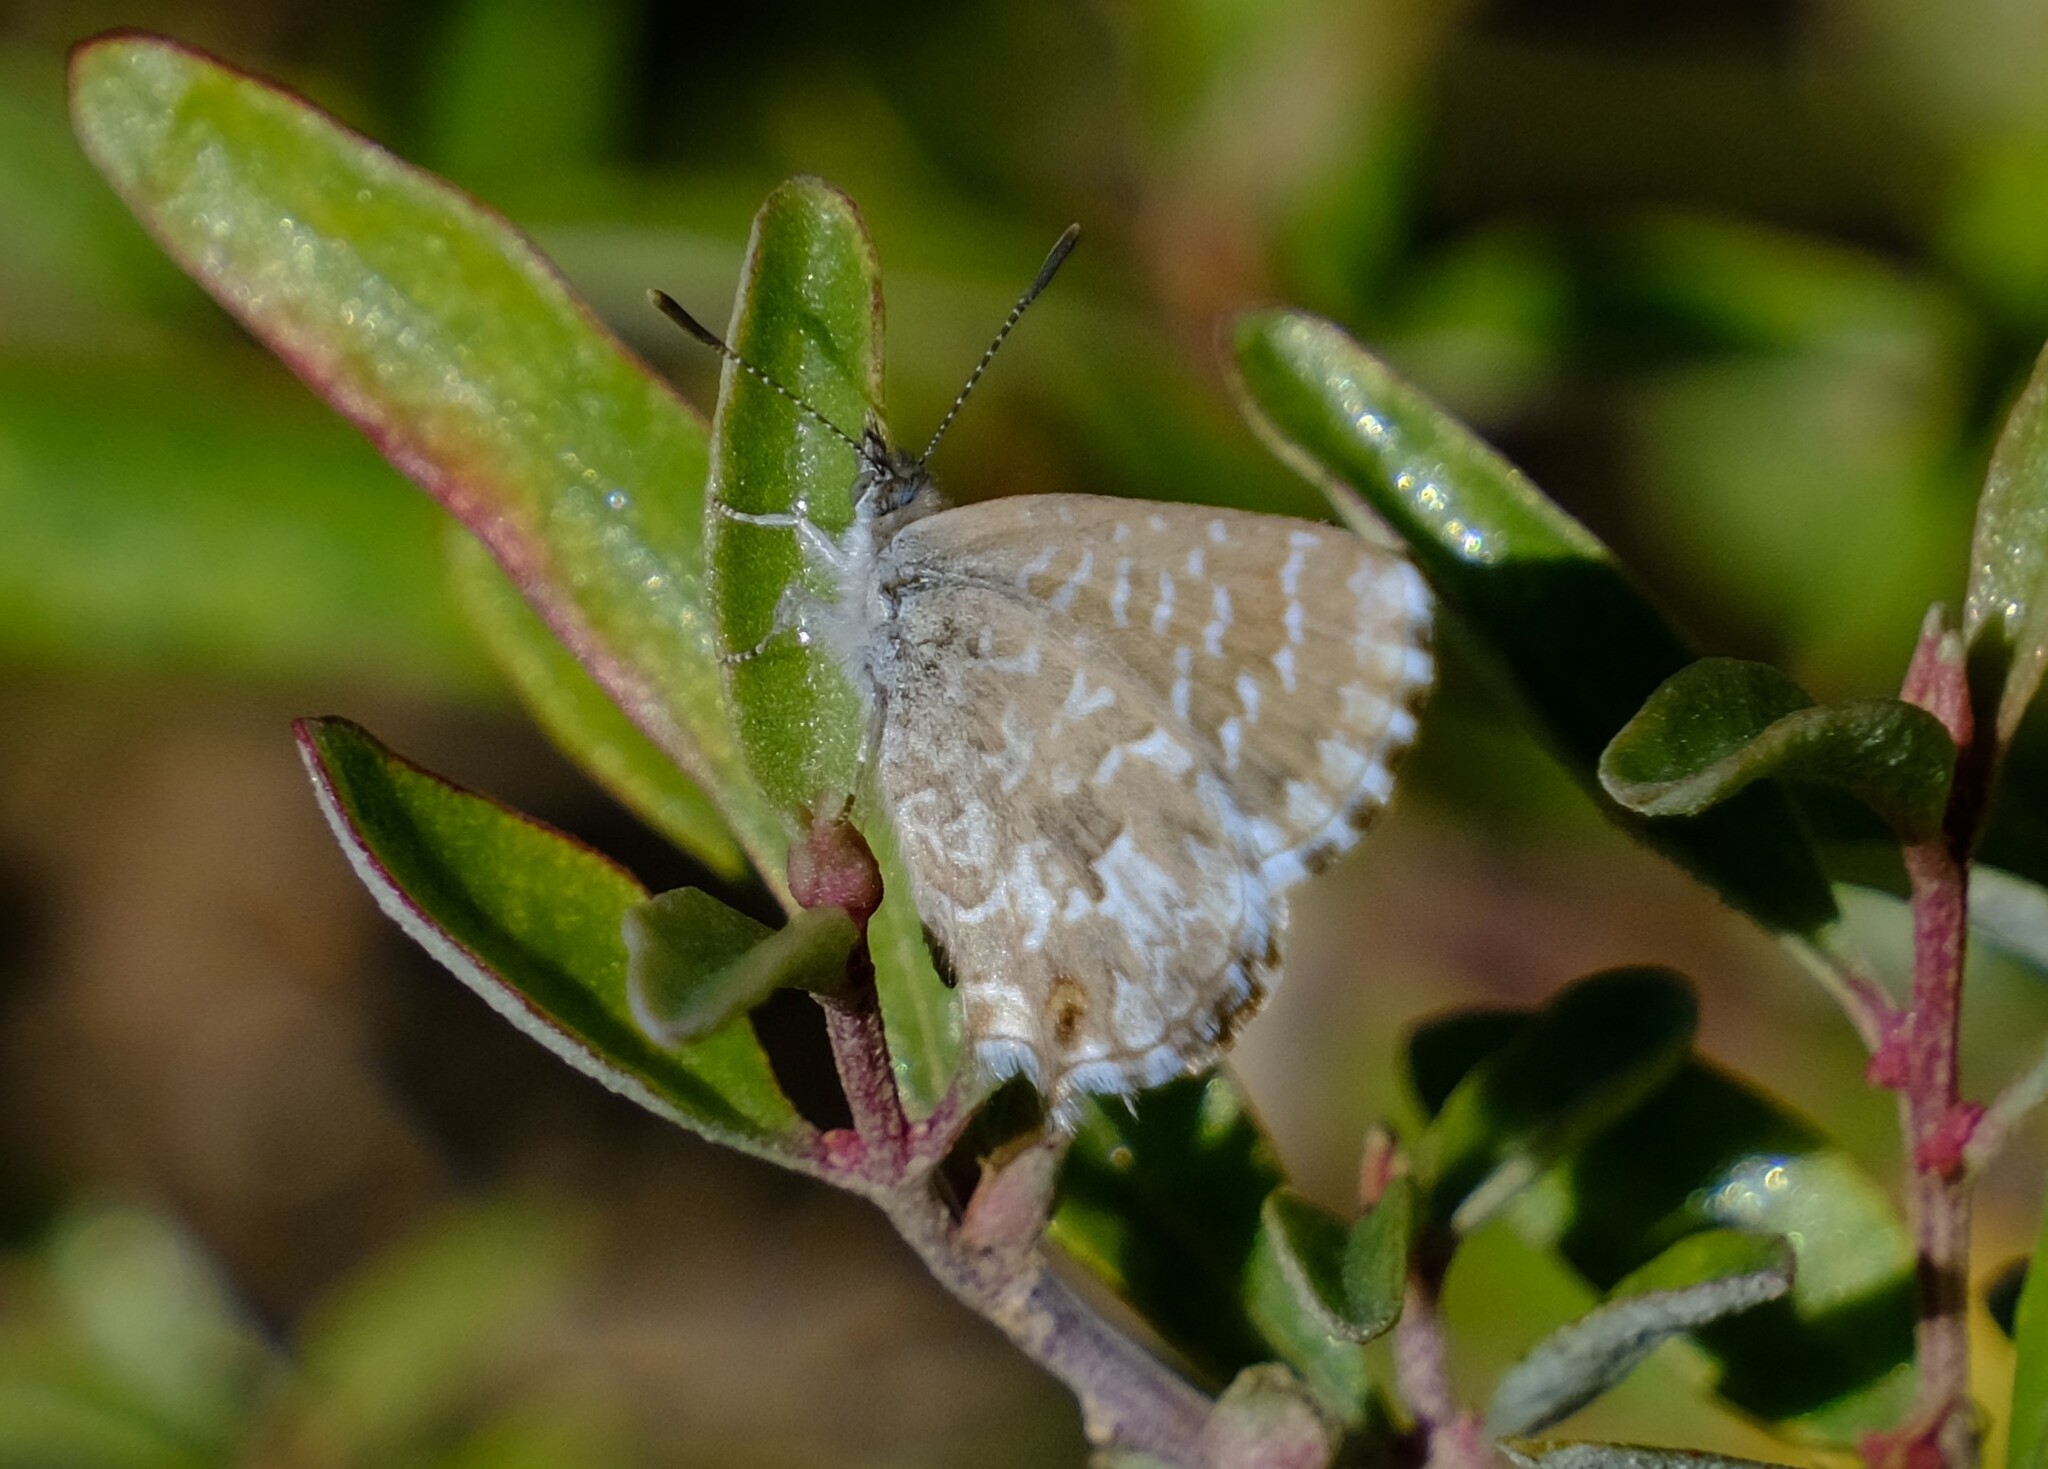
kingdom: Animalia
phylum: Arthropoda
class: Insecta
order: Lepidoptera
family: Lycaenidae
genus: Theclinesthes
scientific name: Theclinesthes serpentata
